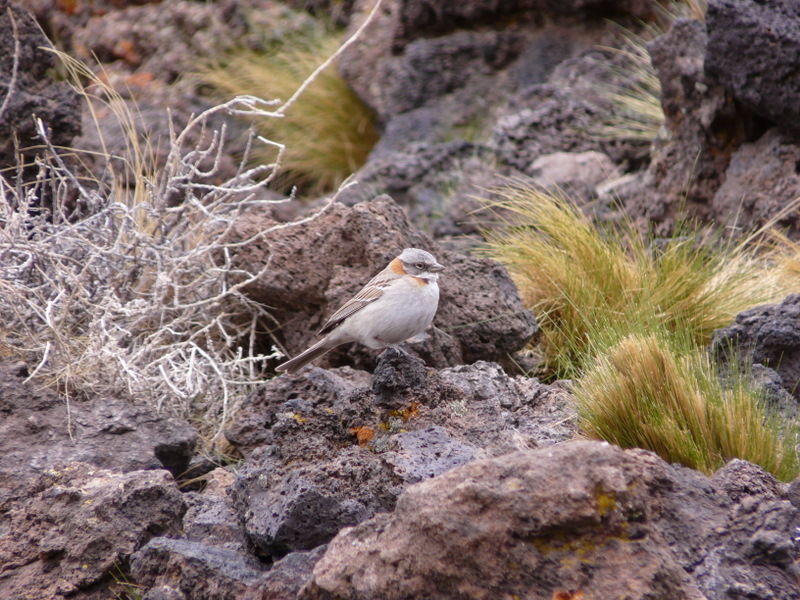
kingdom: Animalia
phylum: Chordata
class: Aves
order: Passeriformes
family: Passerellidae
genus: Zonotrichia
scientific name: Zonotrichia capensis
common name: Rufous-collared sparrow
